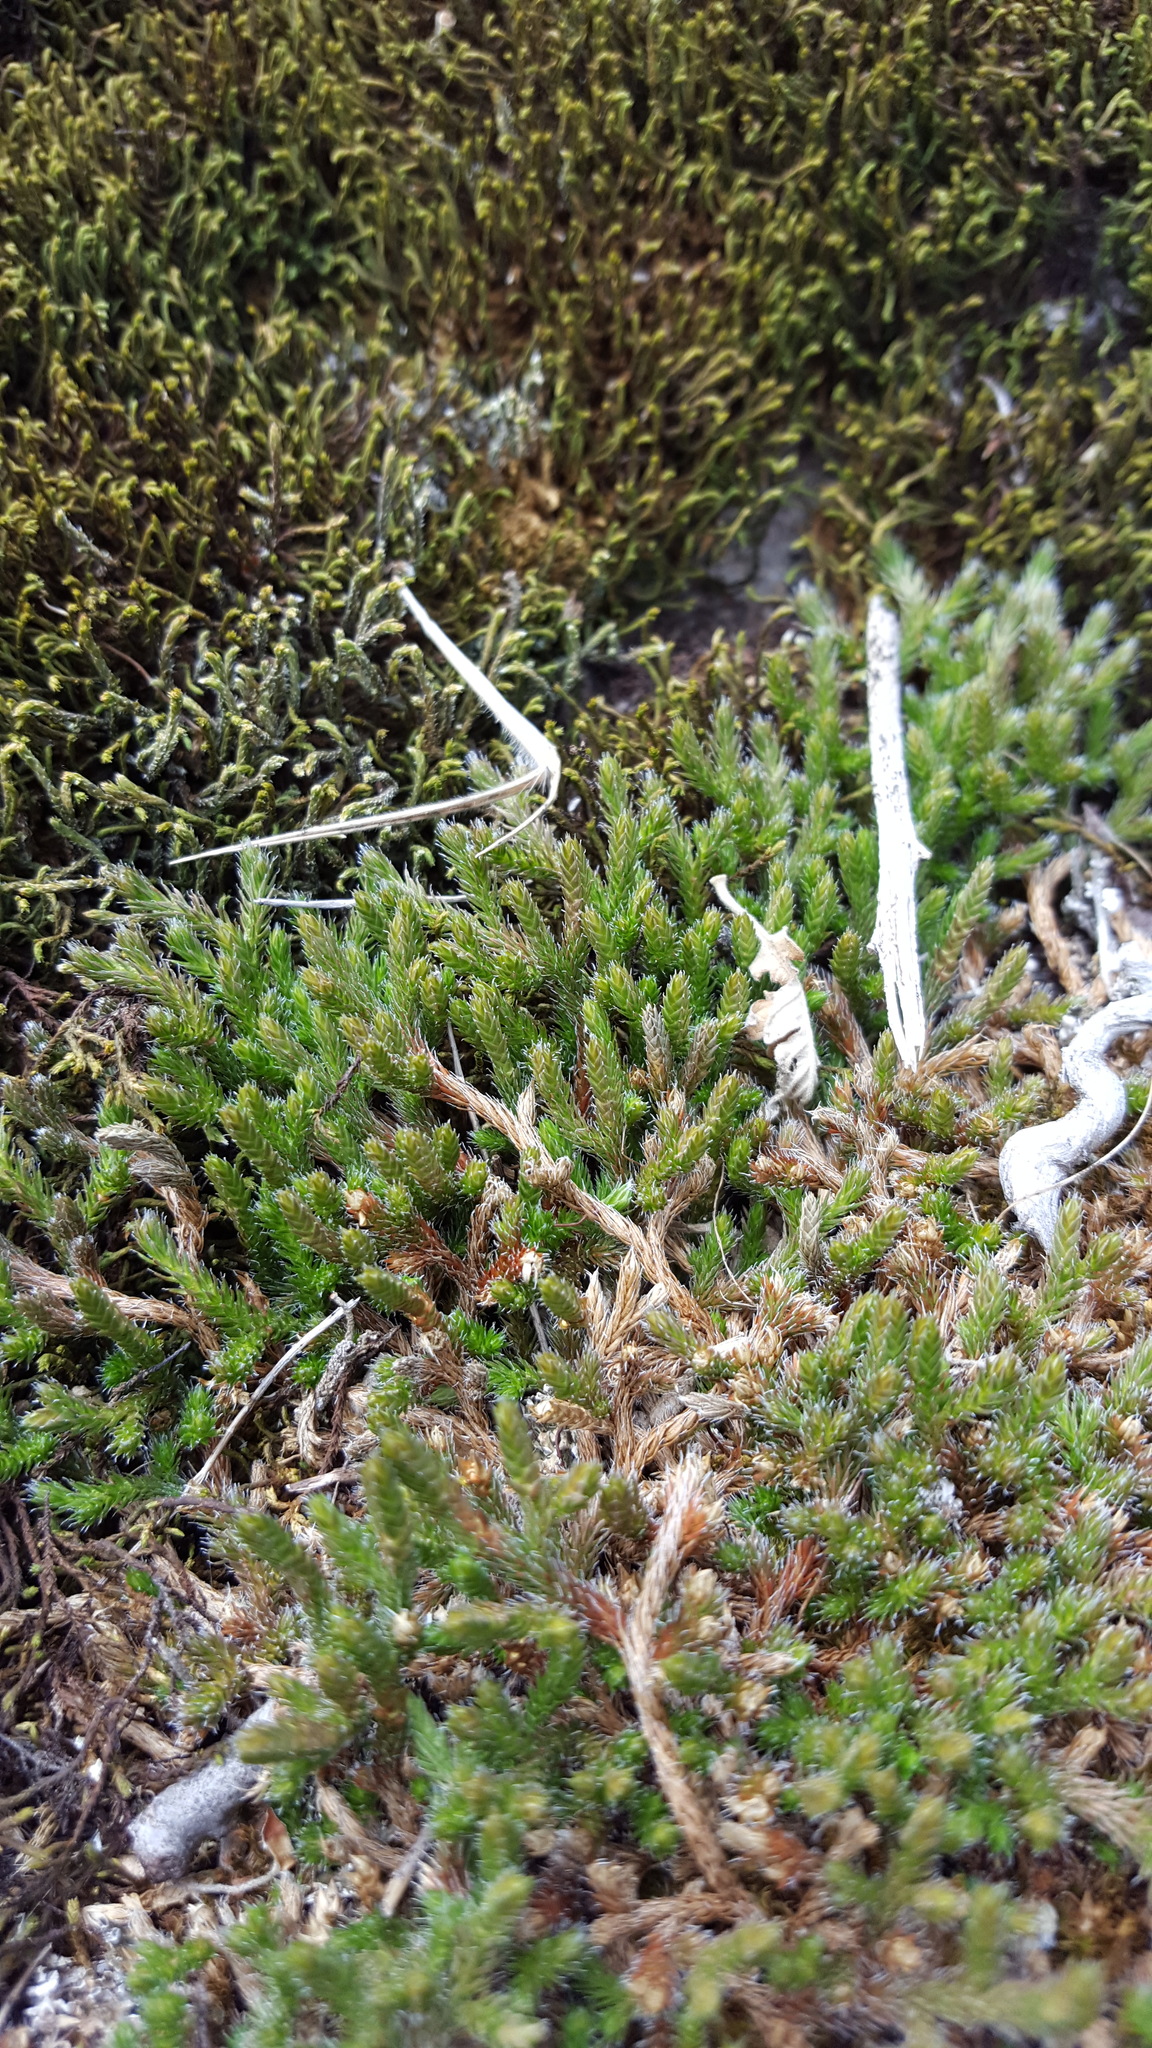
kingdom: Plantae
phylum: Tracheophyta
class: Lycopodiopsida
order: Selaginellales
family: Selaginellaceae
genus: Selaginella
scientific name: Selaginella rupestris
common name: Dwarf spikemoss
